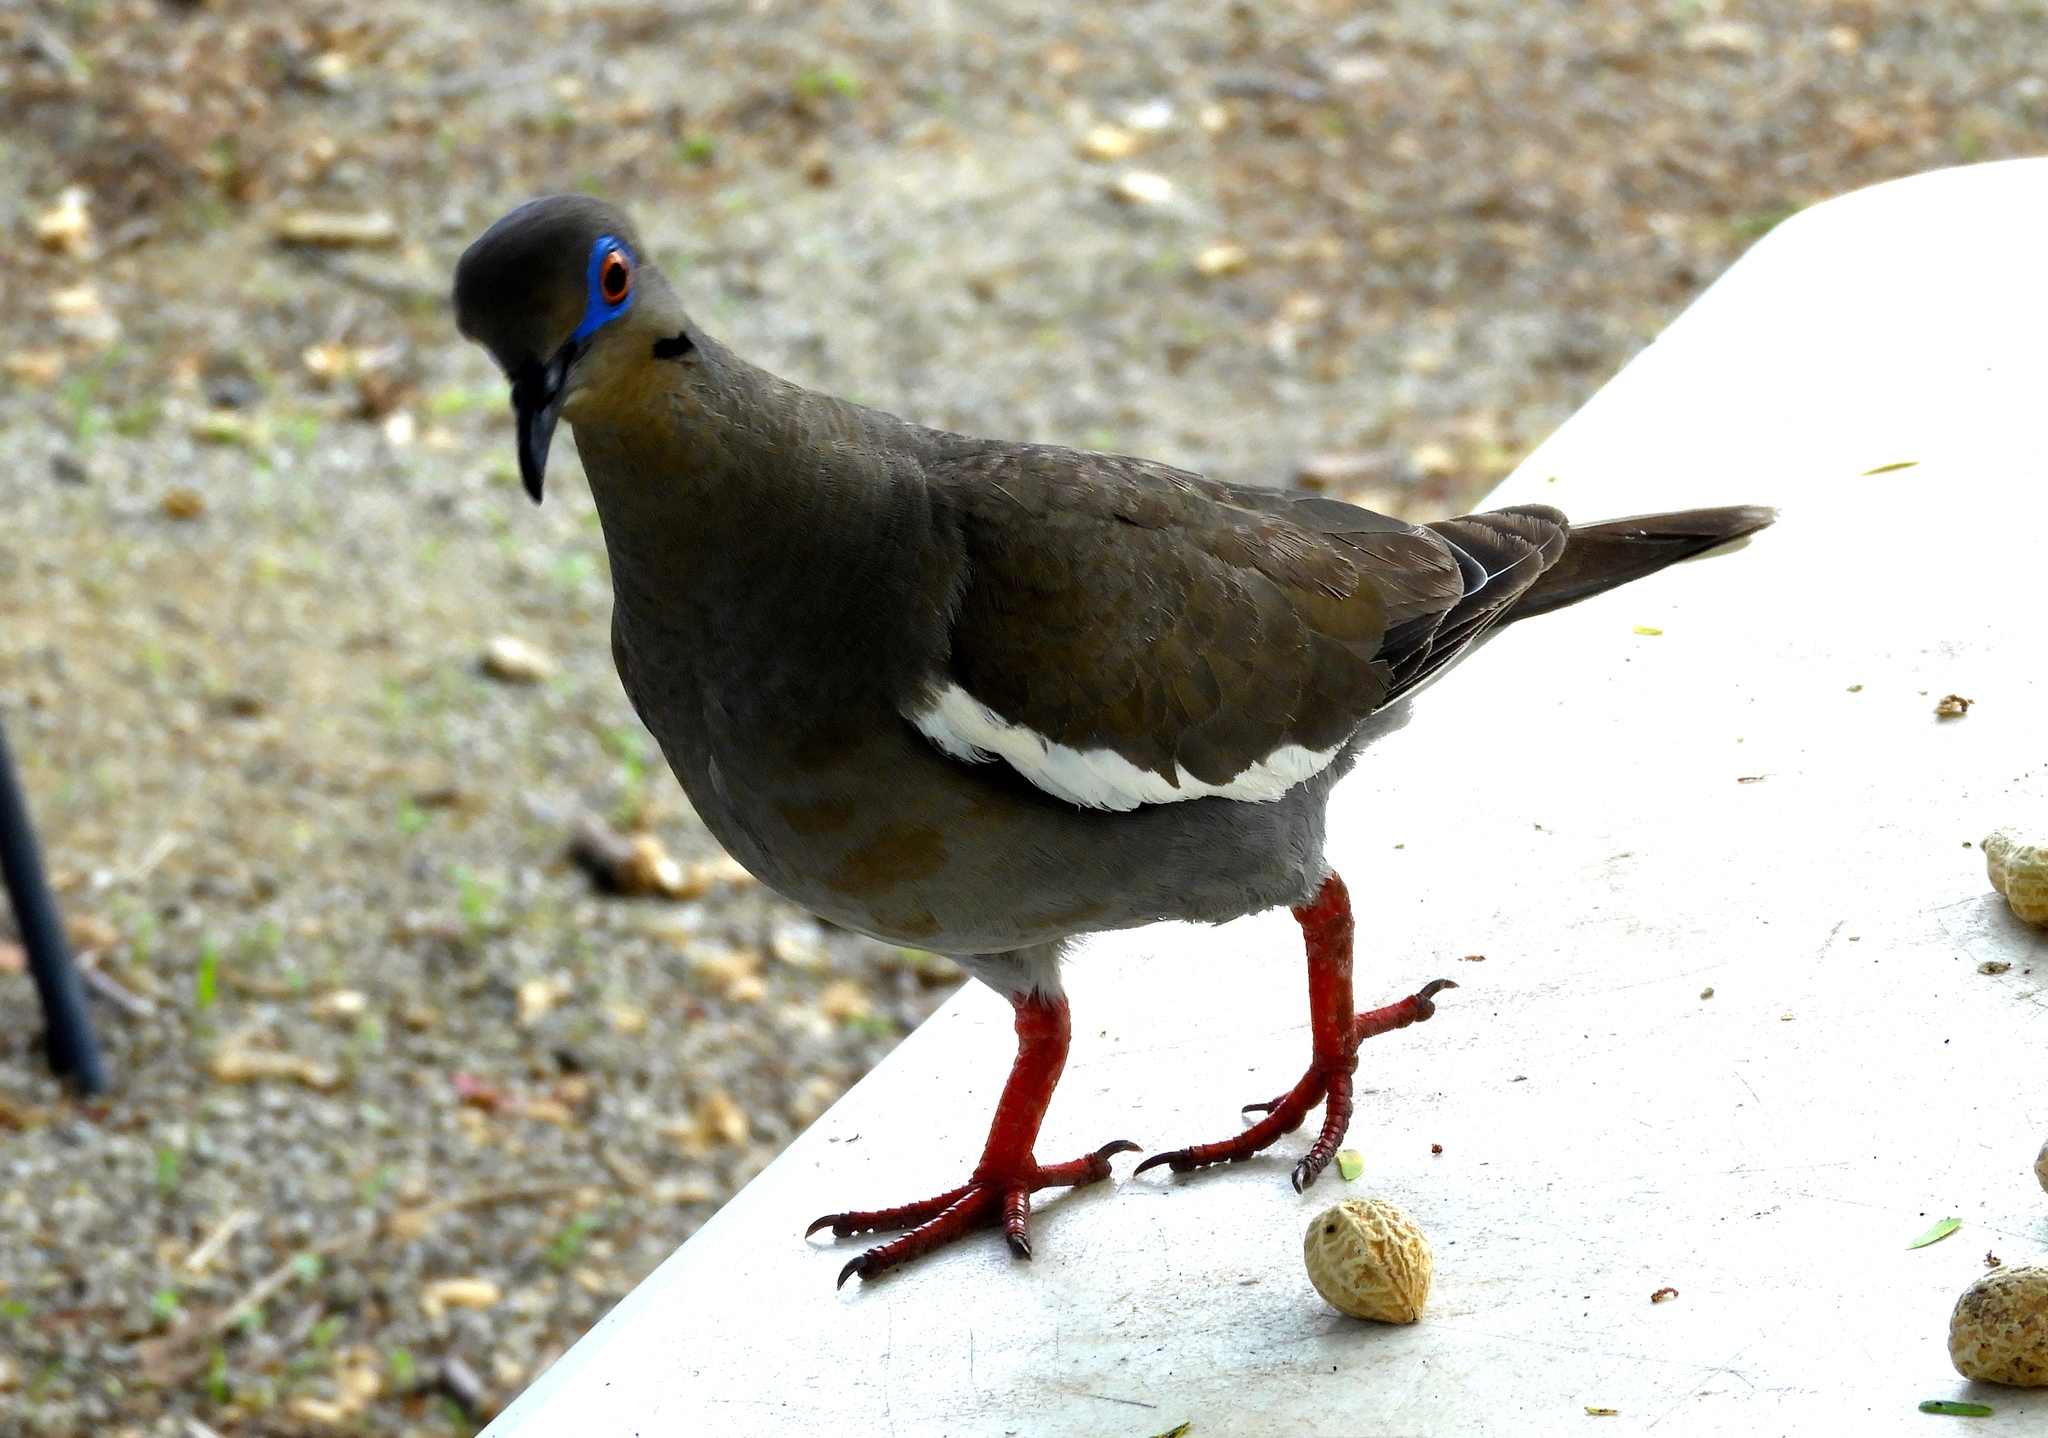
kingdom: Animalia
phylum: Chordata
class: Aves
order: Columbiformes
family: Columbidae
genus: Zenaida
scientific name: Zenaida asiatica
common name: White-winged dove
